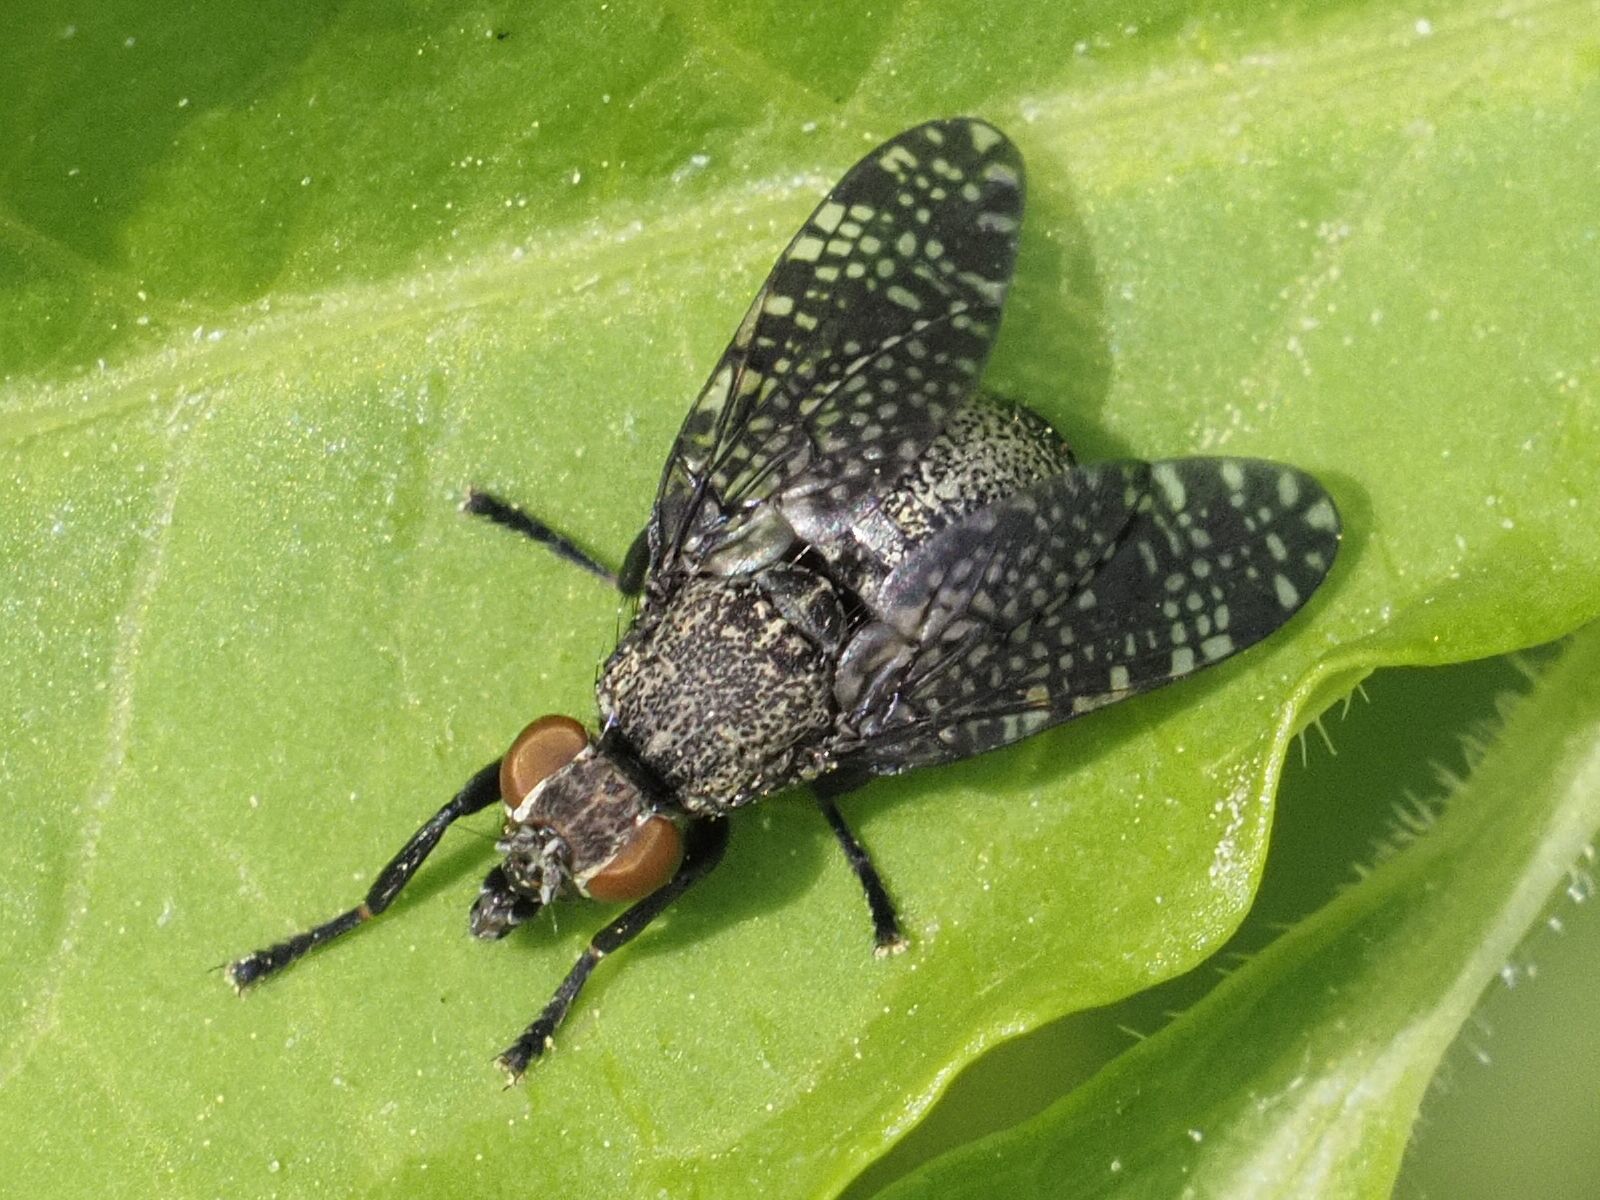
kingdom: Animalia
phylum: Arthropoda
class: Insecta
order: Diptera
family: Platystomatidae
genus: Platystoma
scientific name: Platystoma seminationis
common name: Fly
